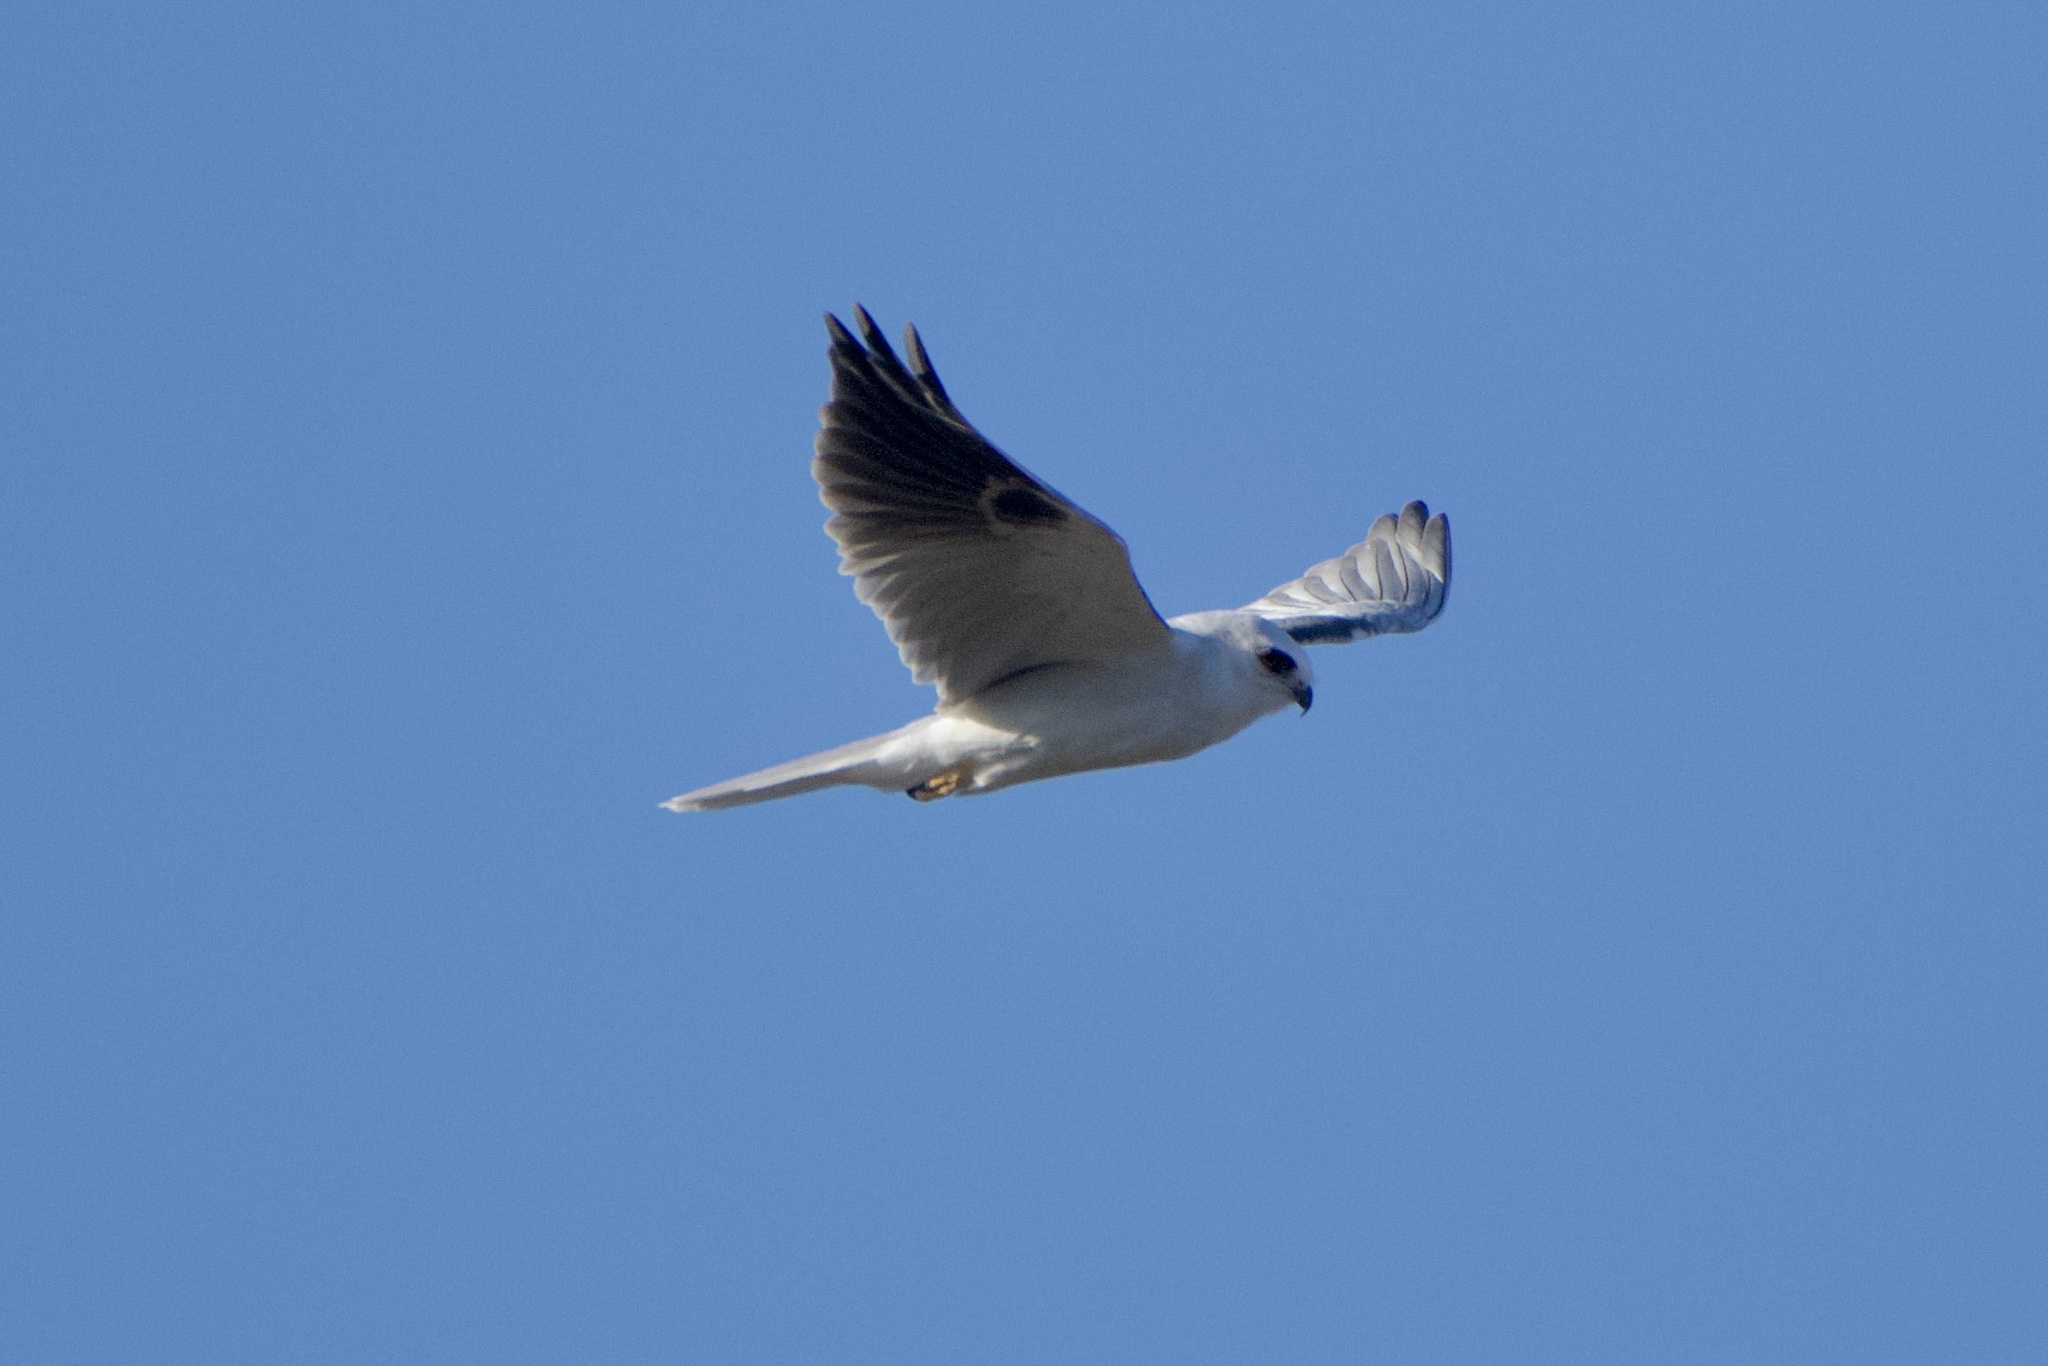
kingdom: Animalia
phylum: Chordata
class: Aves
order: Accipitriformes
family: Accipitridae
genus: Elanus
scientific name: Elanus leucurus
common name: White-tailed kite
